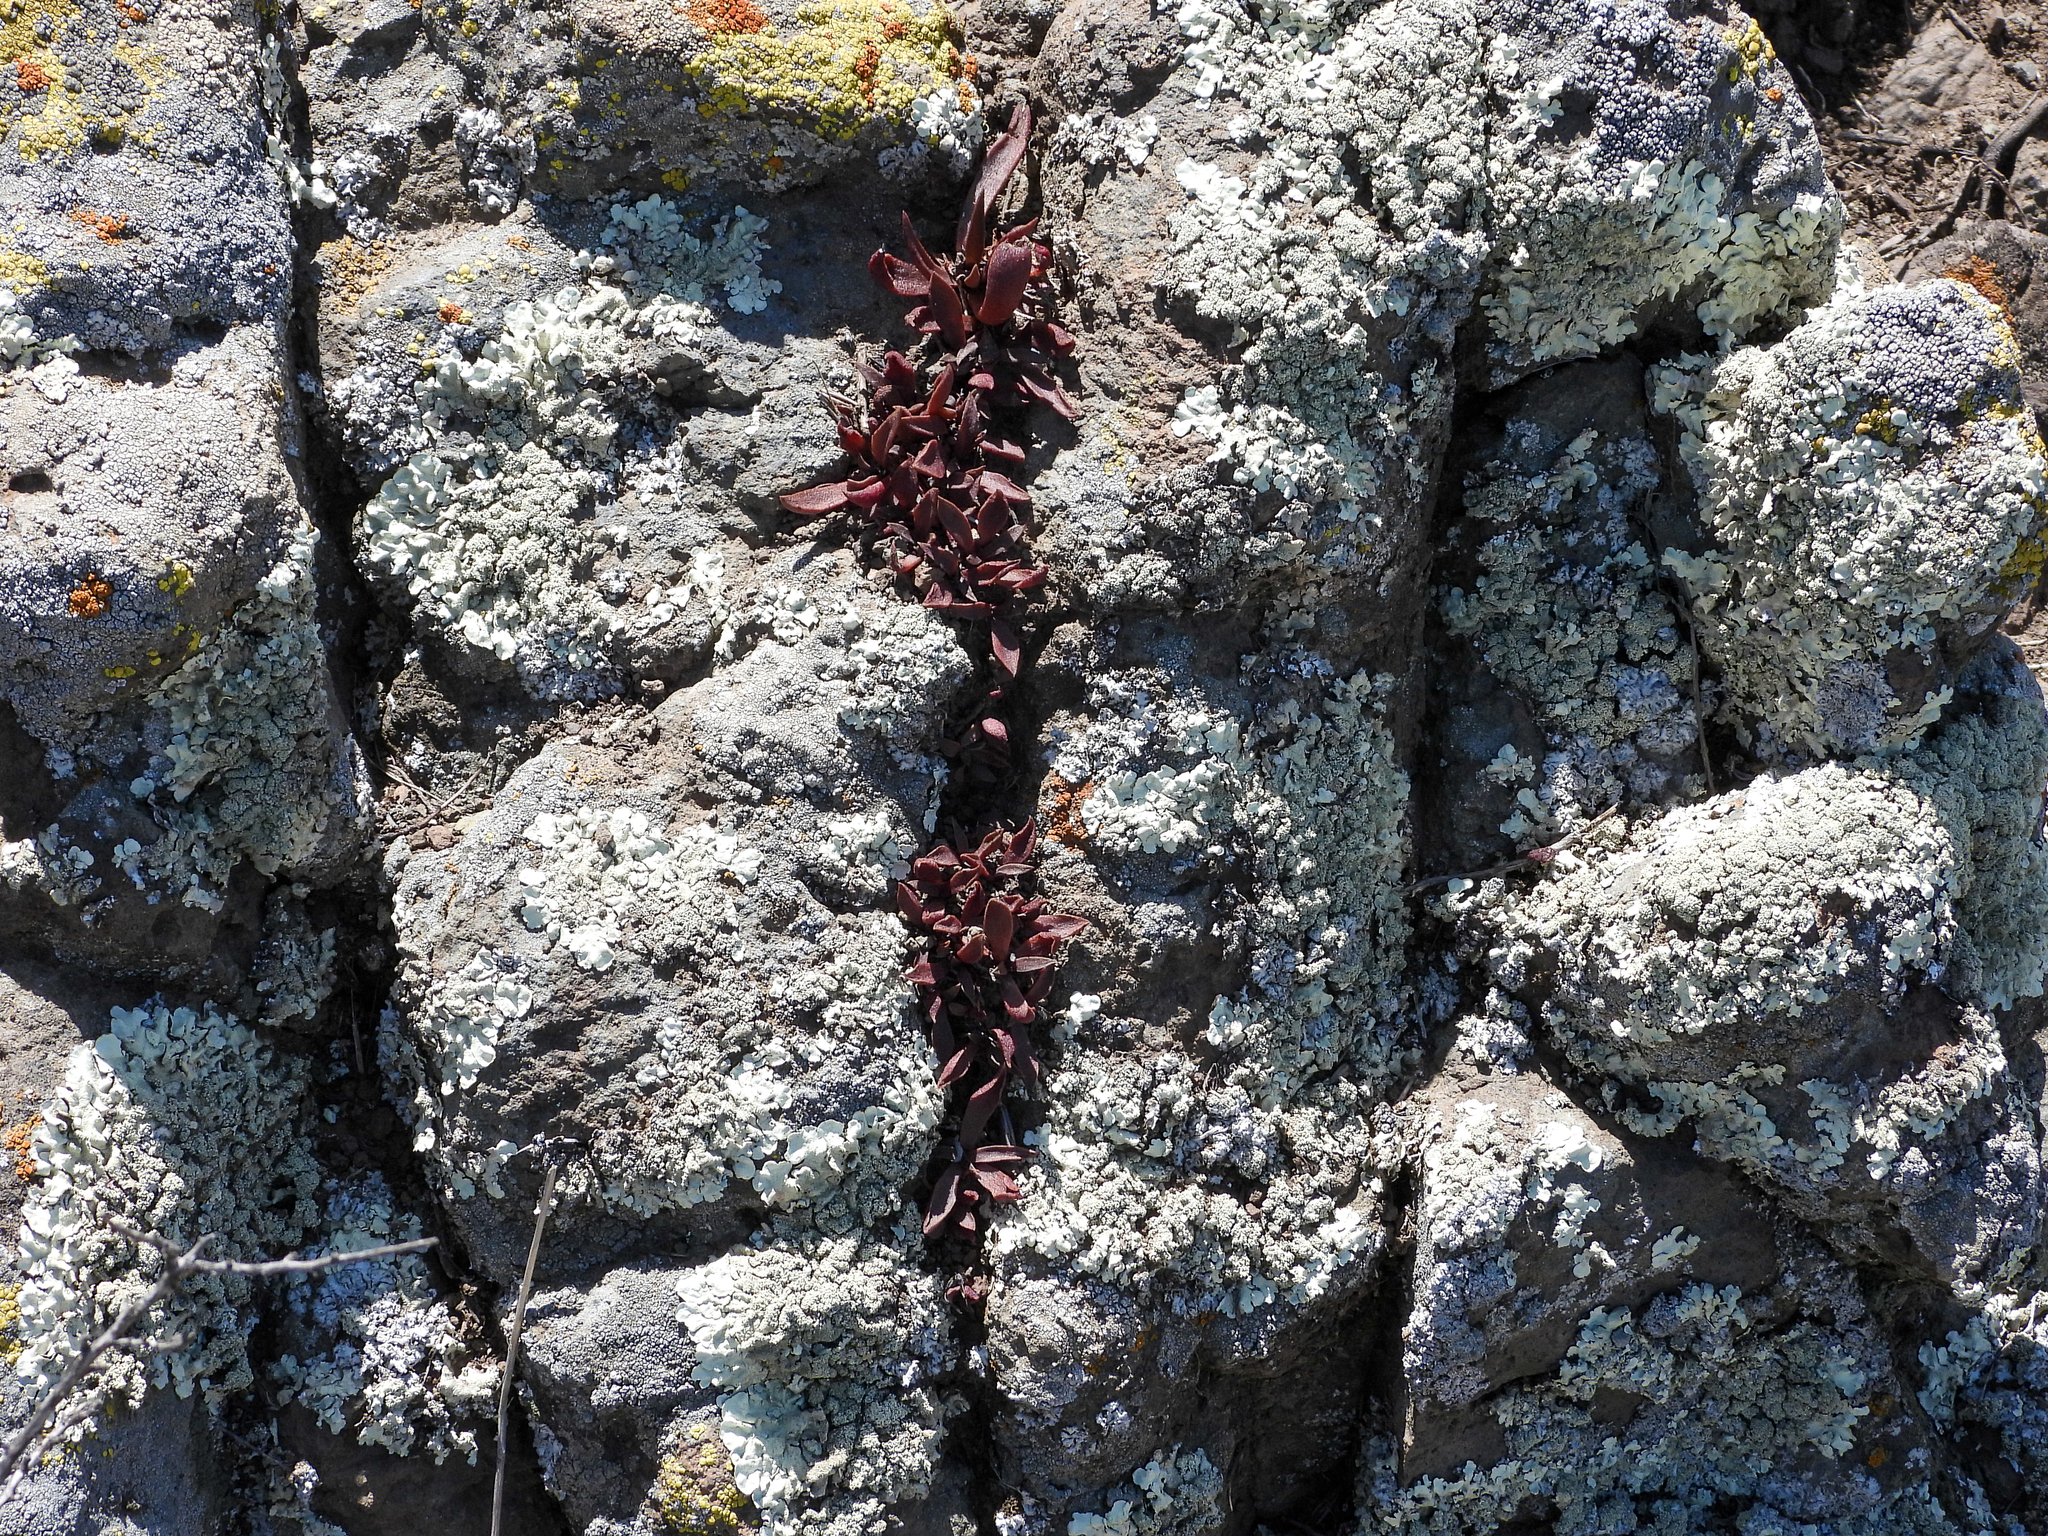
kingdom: Plantae
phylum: Tracheophyta
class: Magnoliopsida
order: Saxifragales
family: Crassulaceae
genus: Dudleya
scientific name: Dudleya parva
